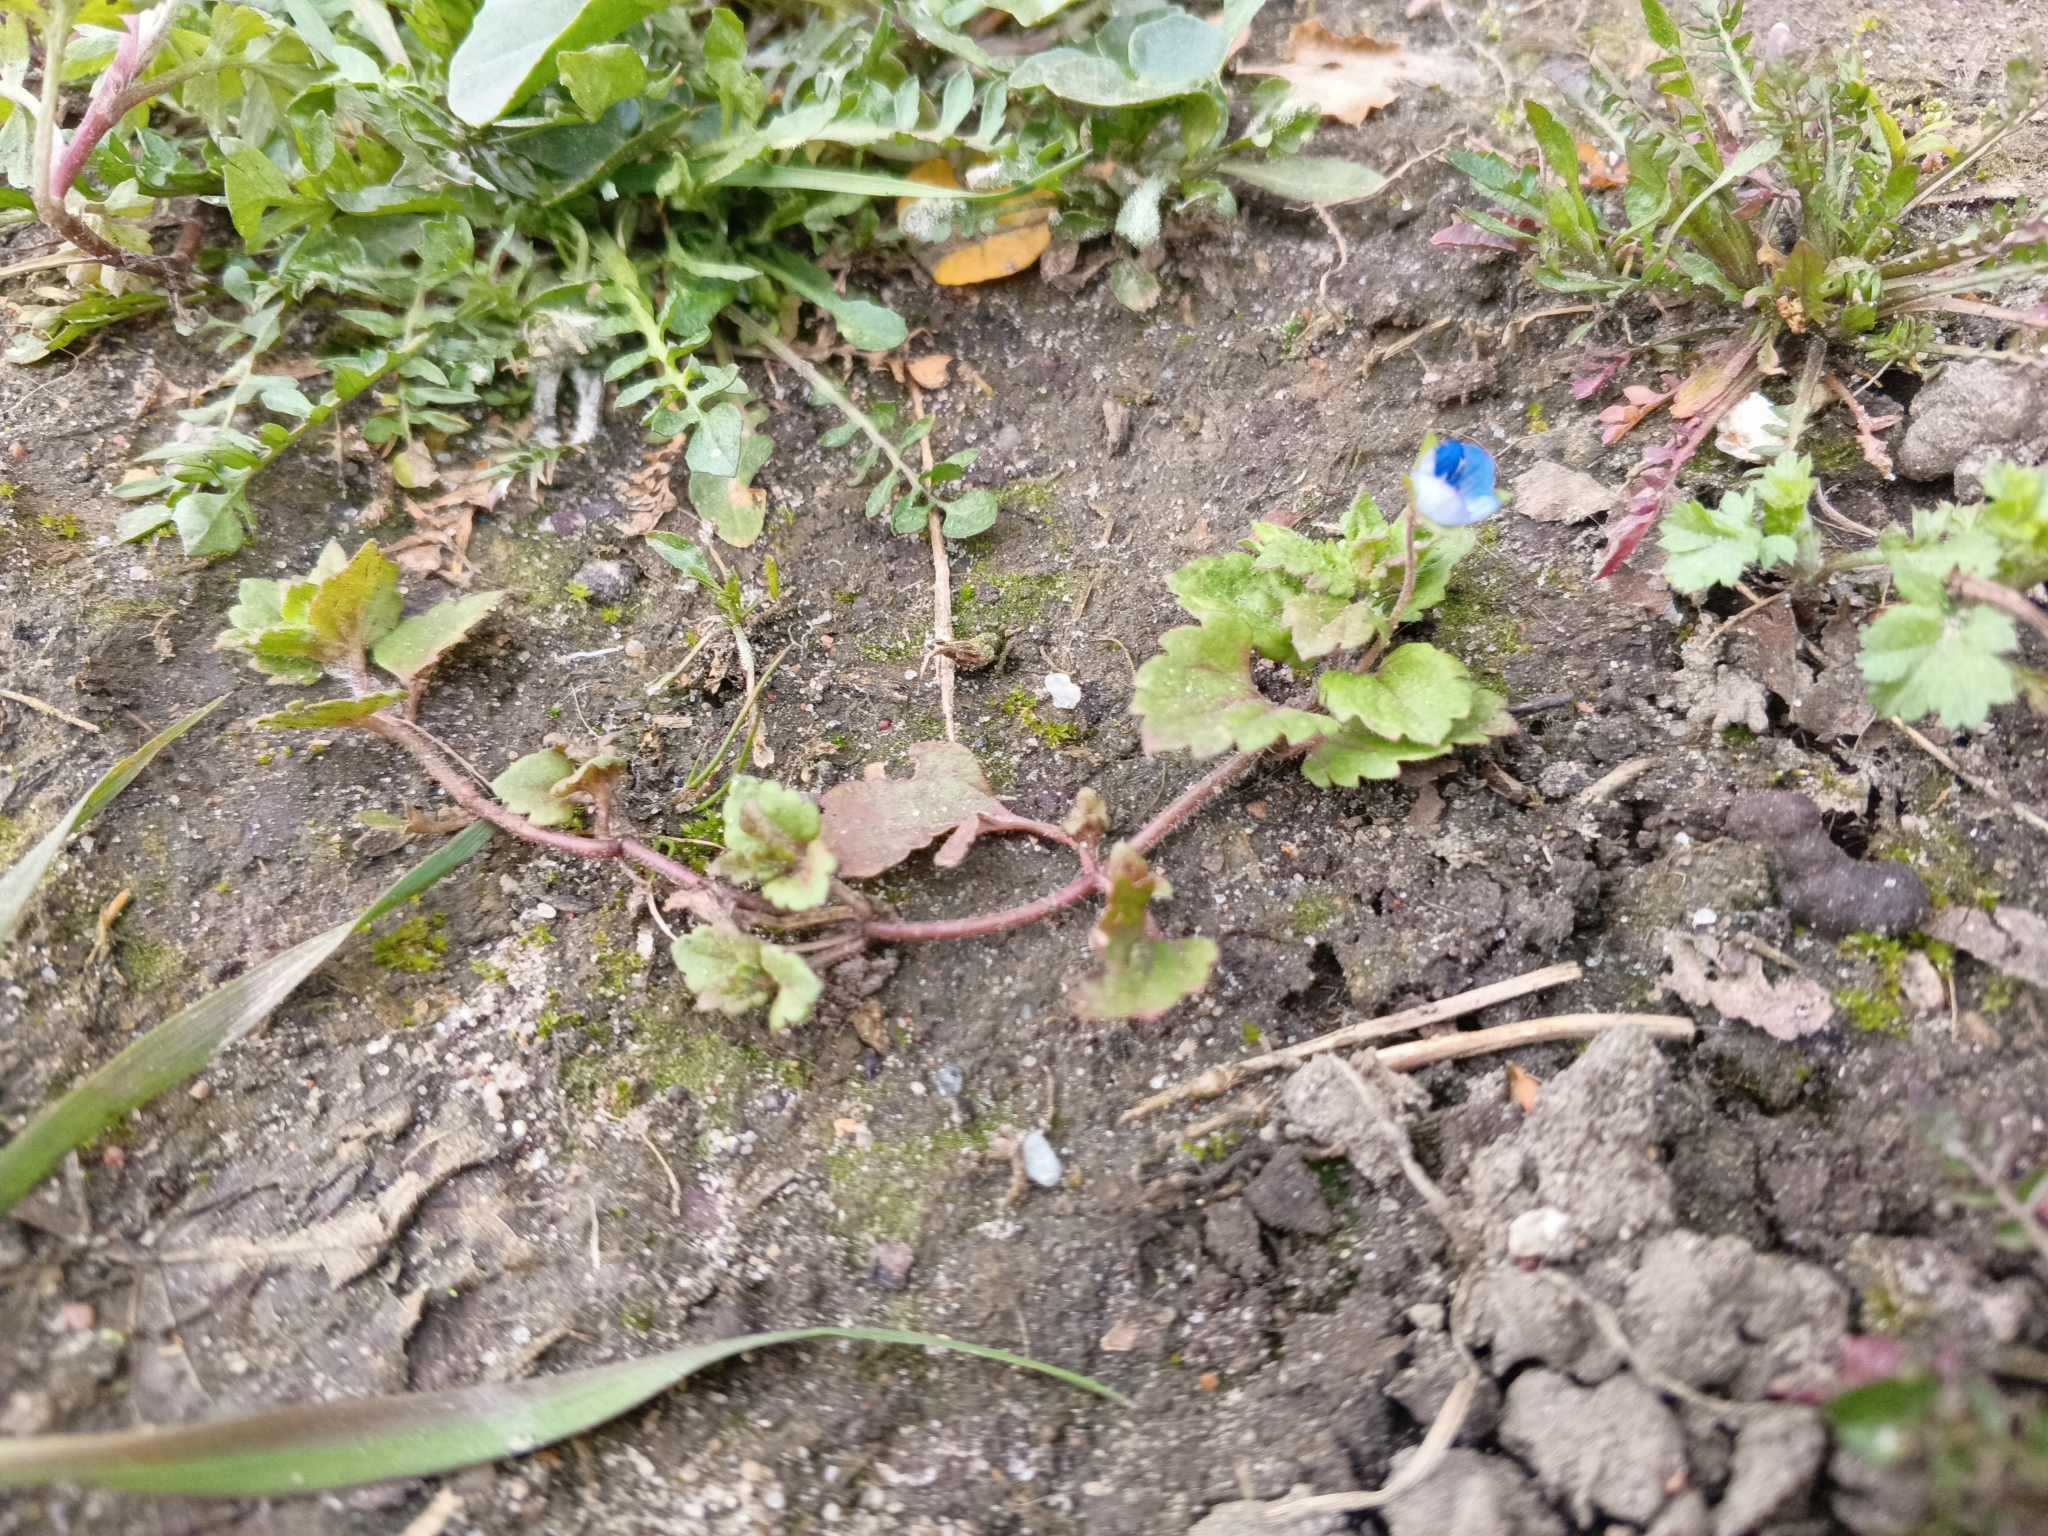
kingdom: Plantae
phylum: Tracheophyta
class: Magnoliopsida
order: Lamiales
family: Plantaginaceae
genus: Veronica
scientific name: Veronica persica
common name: Common field-speedwell
